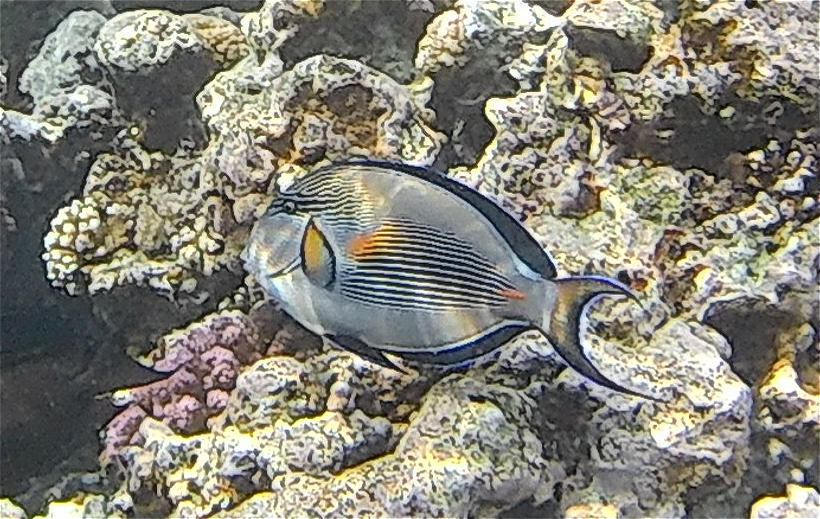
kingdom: Animalia
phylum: Chordata
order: Perciformes
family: Acanthuridae
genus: Acanthurus
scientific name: Acanthurus sohal
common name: Red sea surgeonfish
